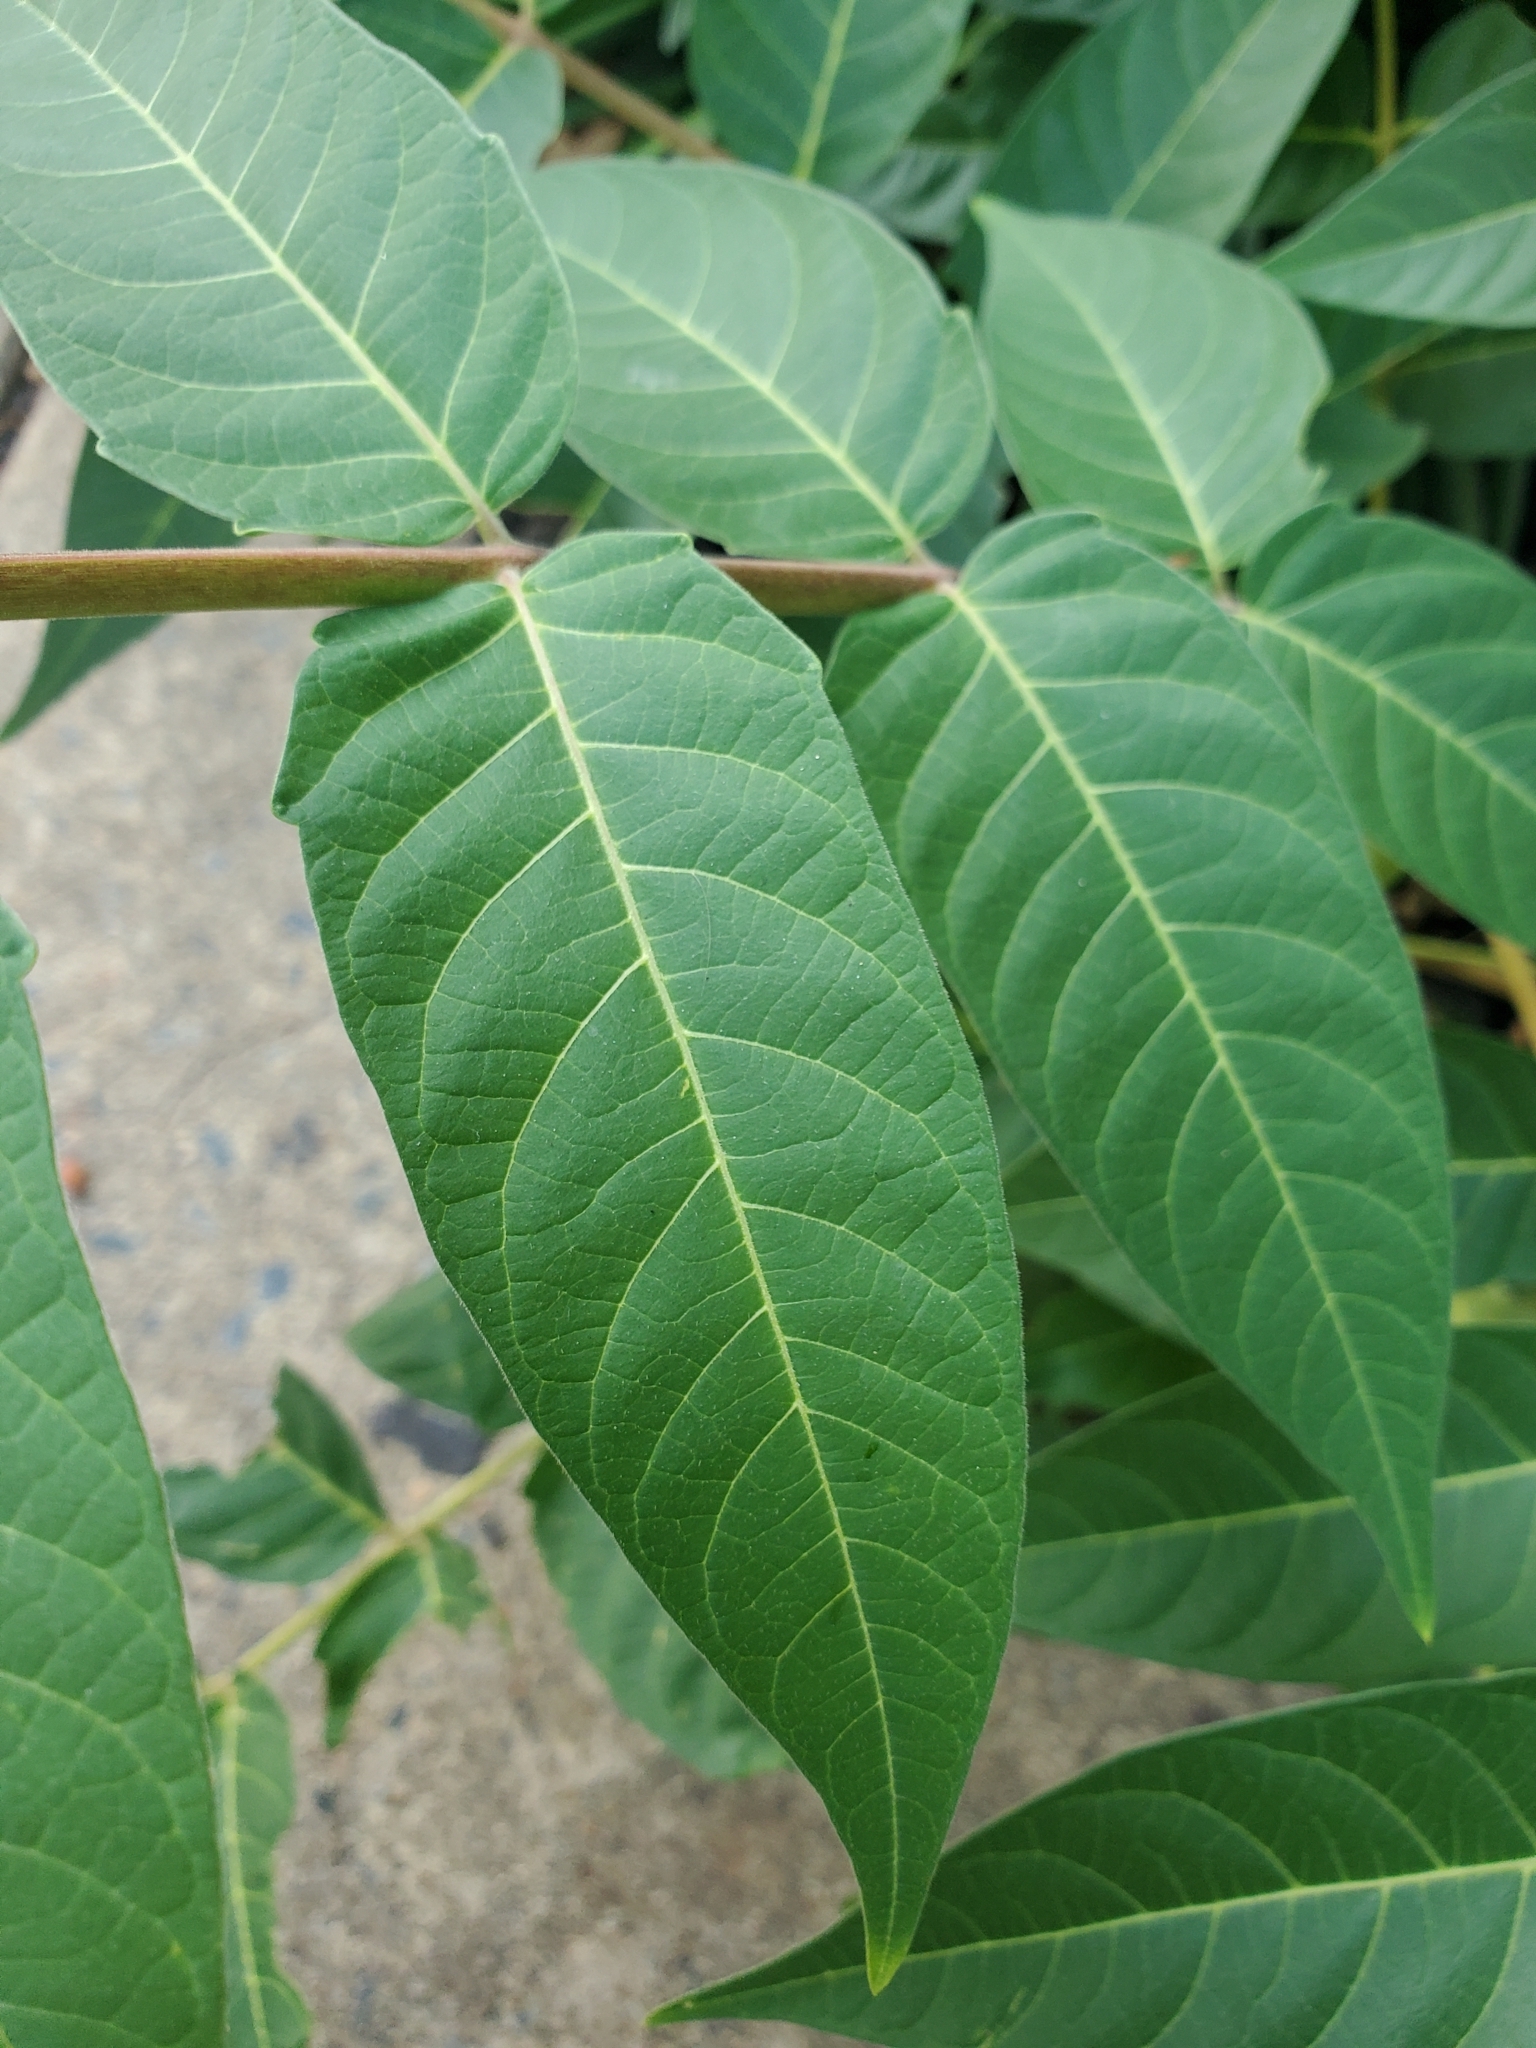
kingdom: Plantae
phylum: Tracheophyta
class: Magnoliopsida
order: Sapindales
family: Simaroubaceae
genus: Ailanthus
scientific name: Ailanthus altissima
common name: Tree-of-heaven
